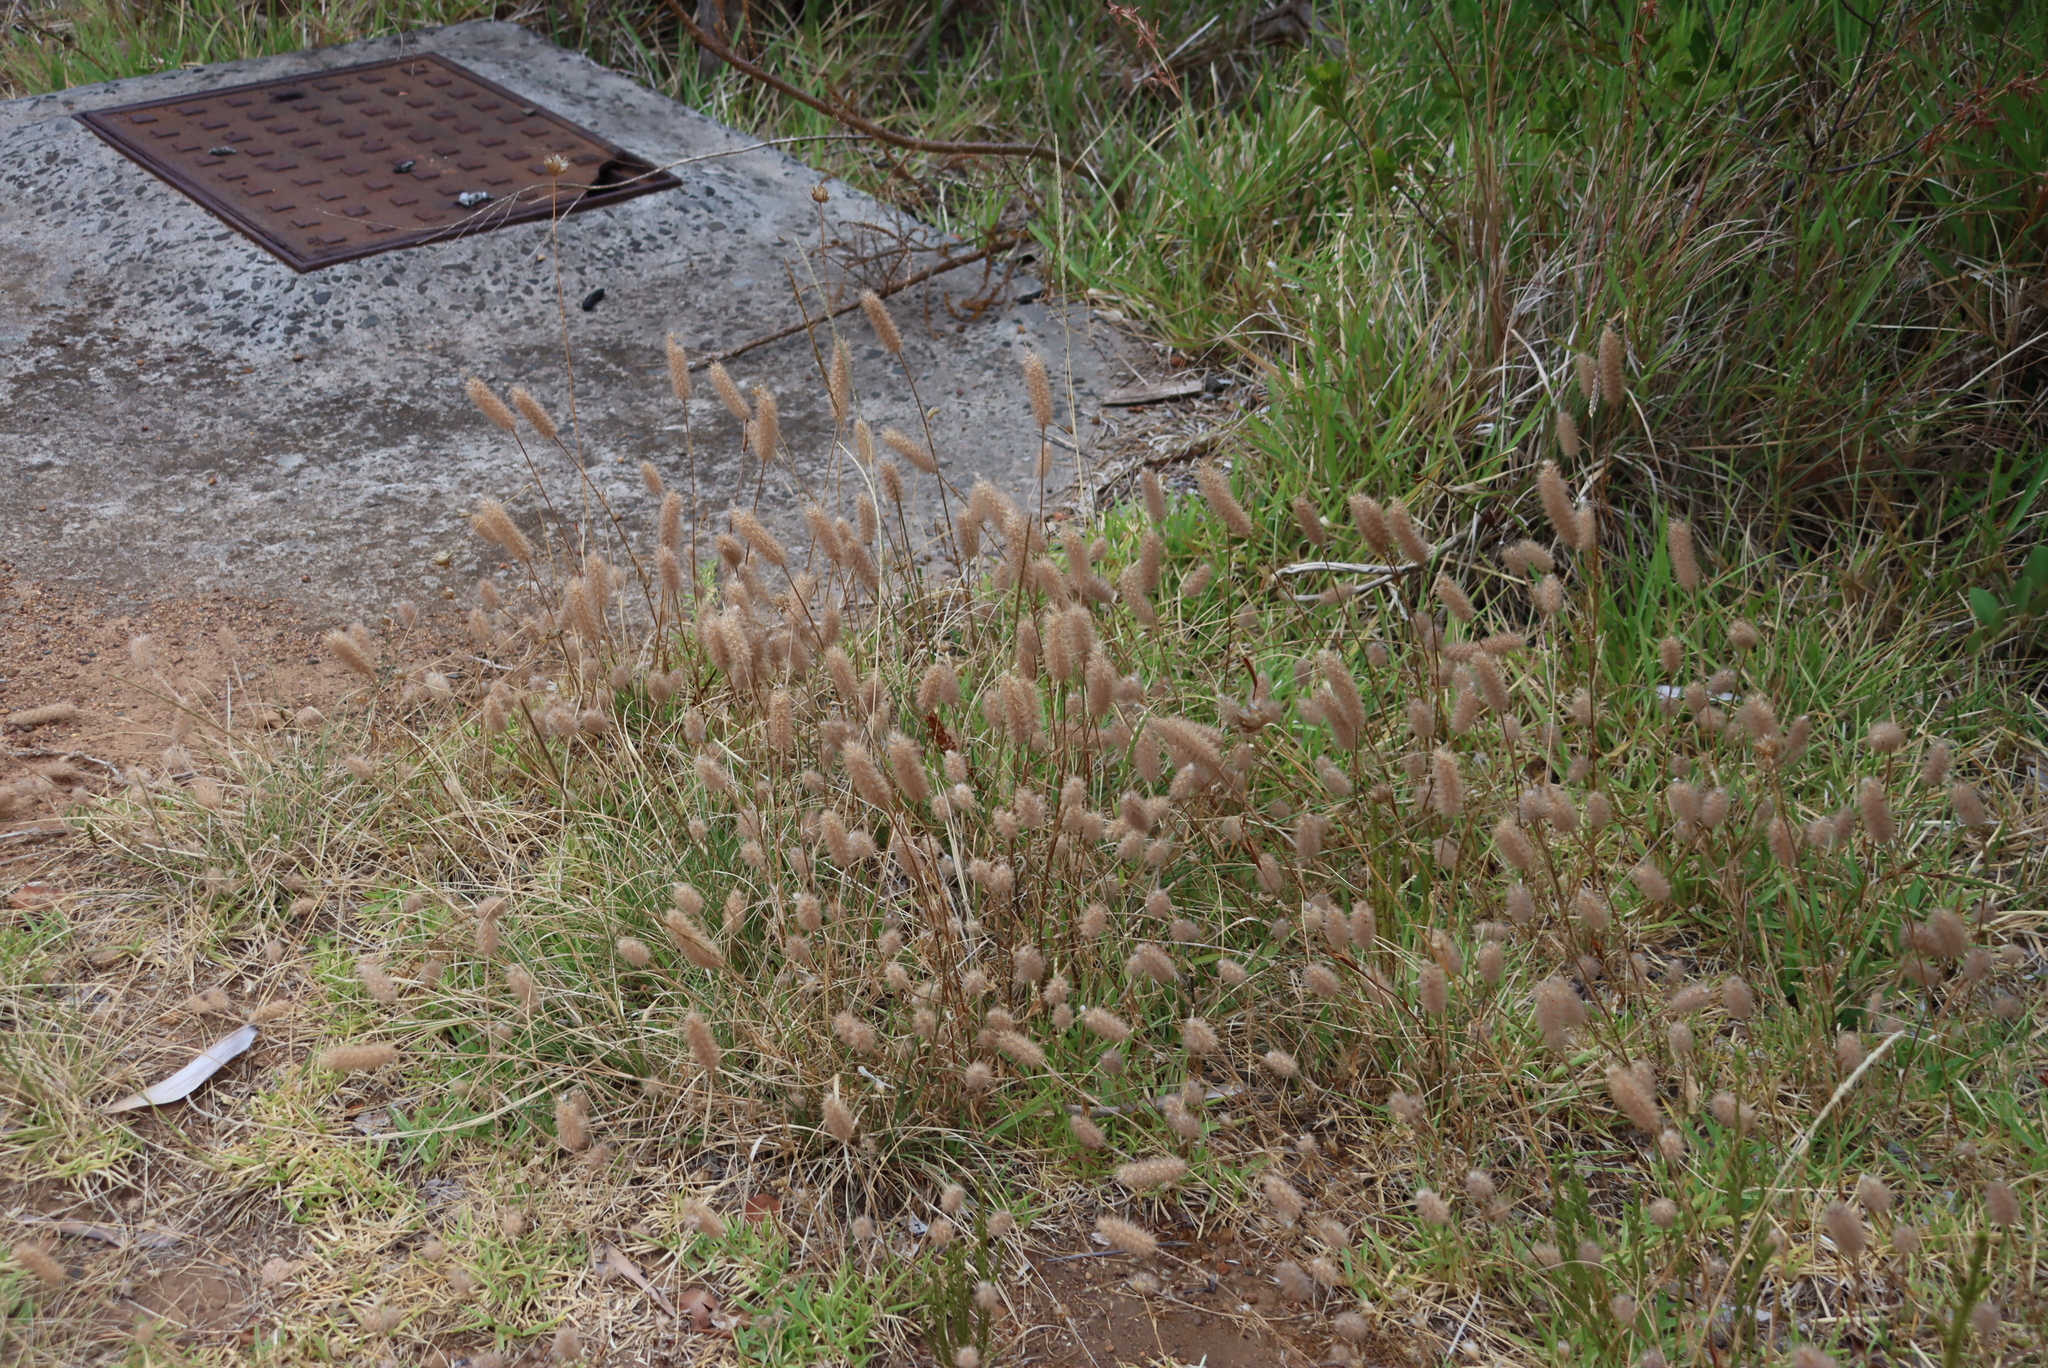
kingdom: Plantae
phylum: Tracheophyta
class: Magnoliopsida
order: Fabales
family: Fabaceae
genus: Trifolium
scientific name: Trifolium angustifolium
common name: Narrow clover
